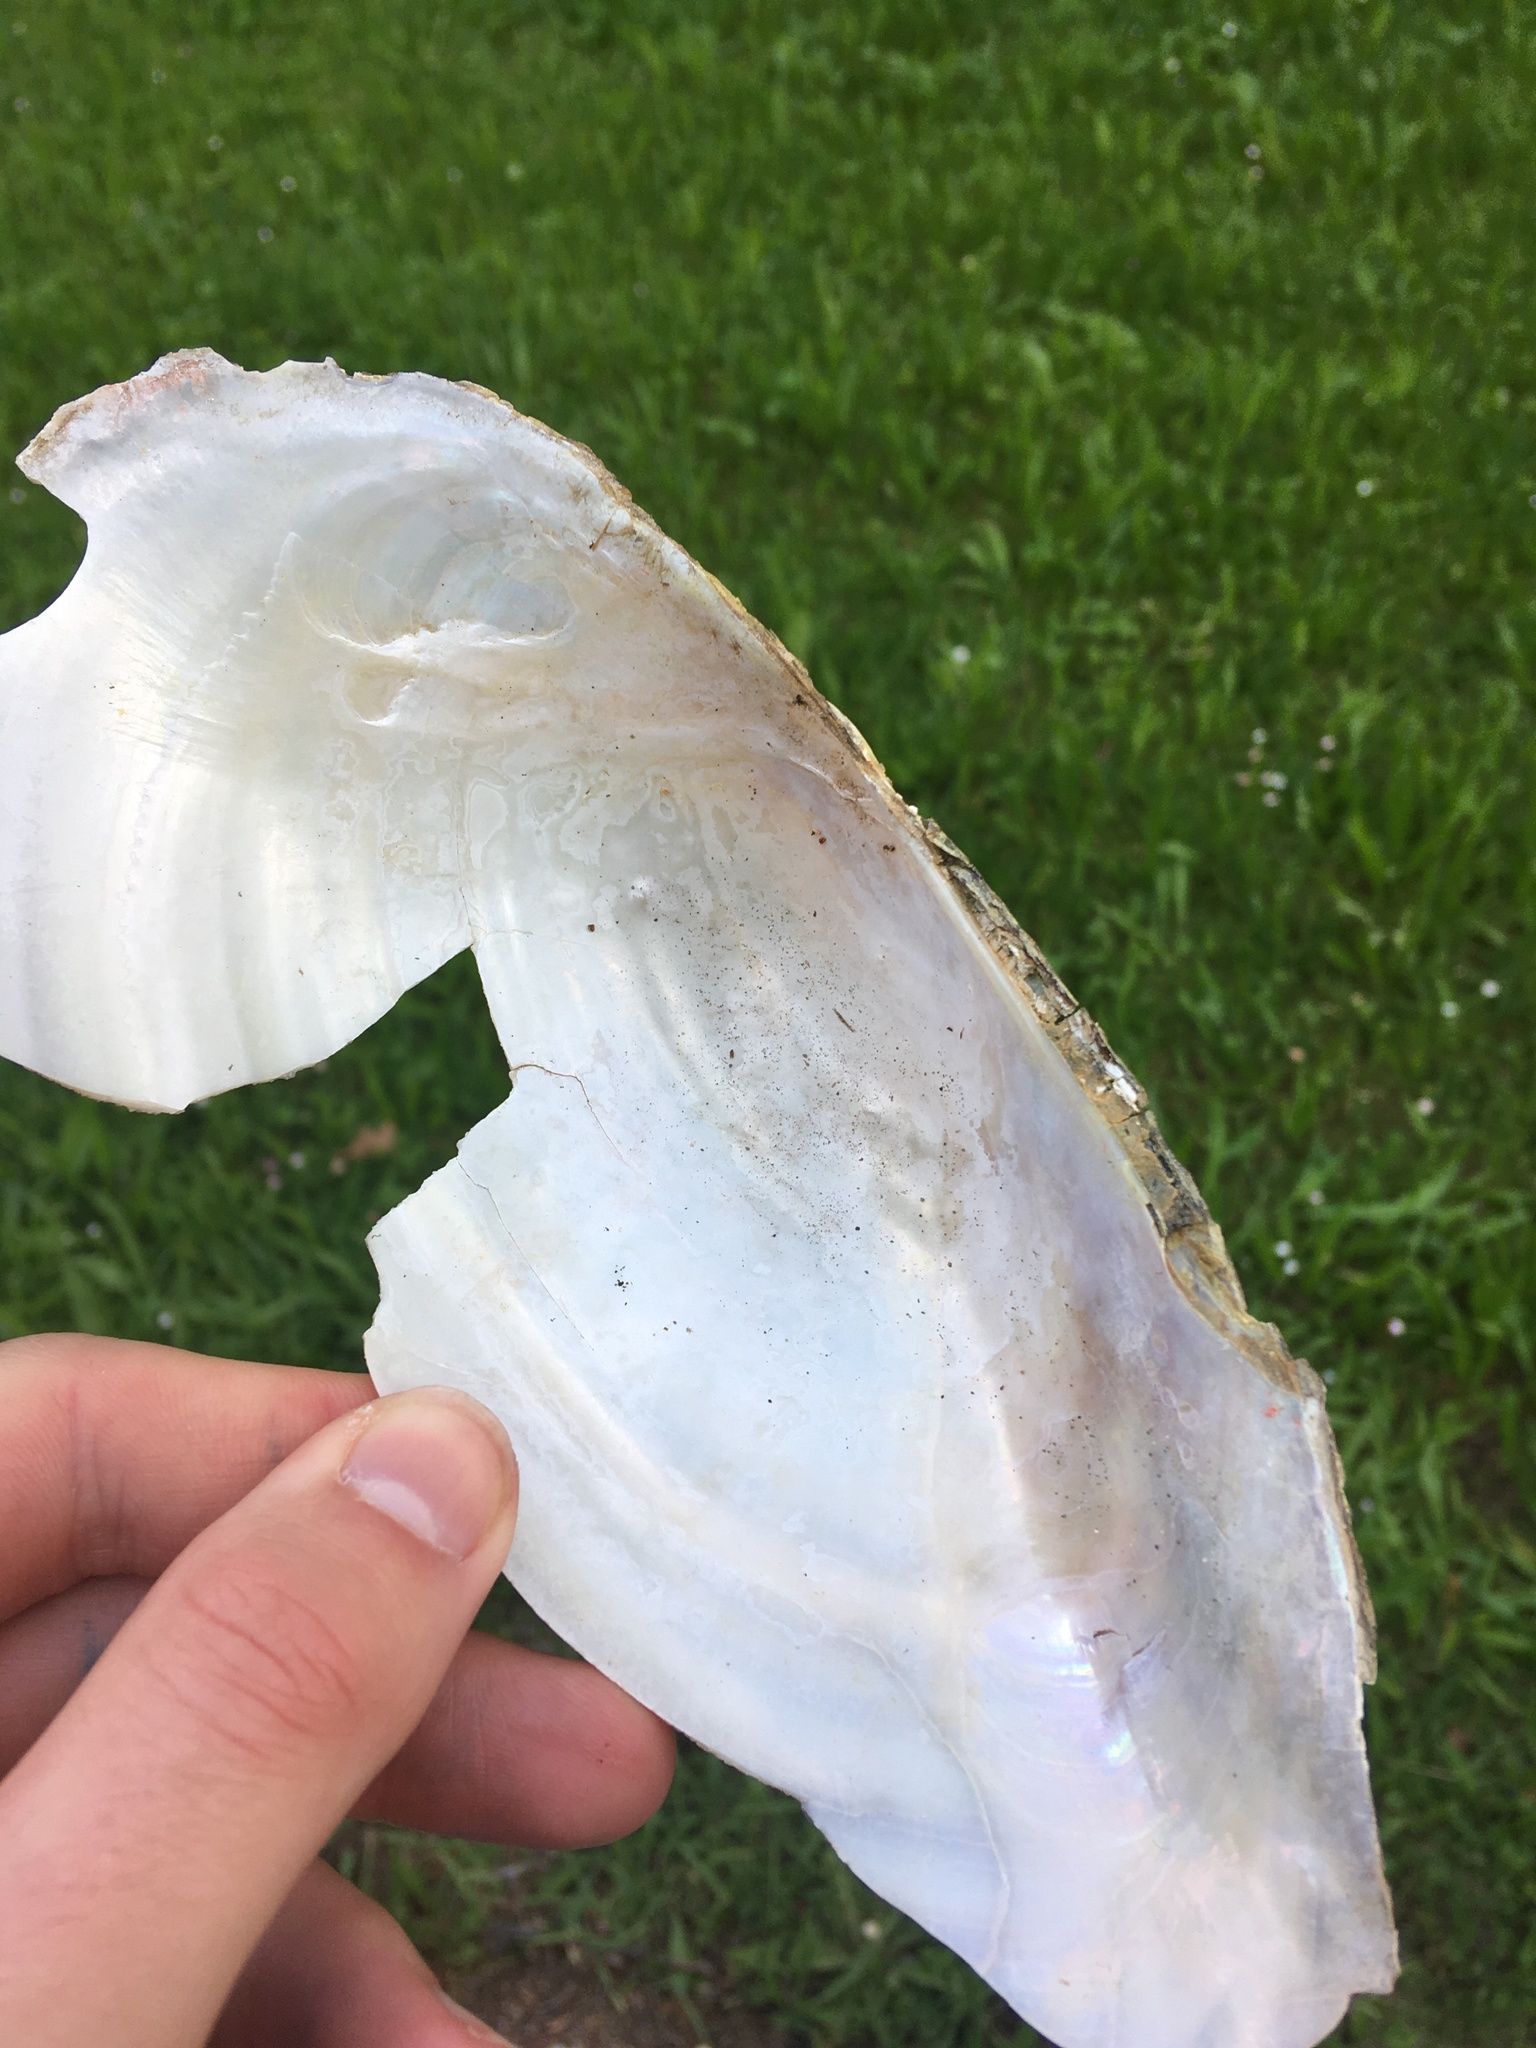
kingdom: Animalia
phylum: Mollusca
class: Bivalvia
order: Unionida
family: Unionidae
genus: Anodonta
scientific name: Anodonta cygnea
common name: Swan mussel
